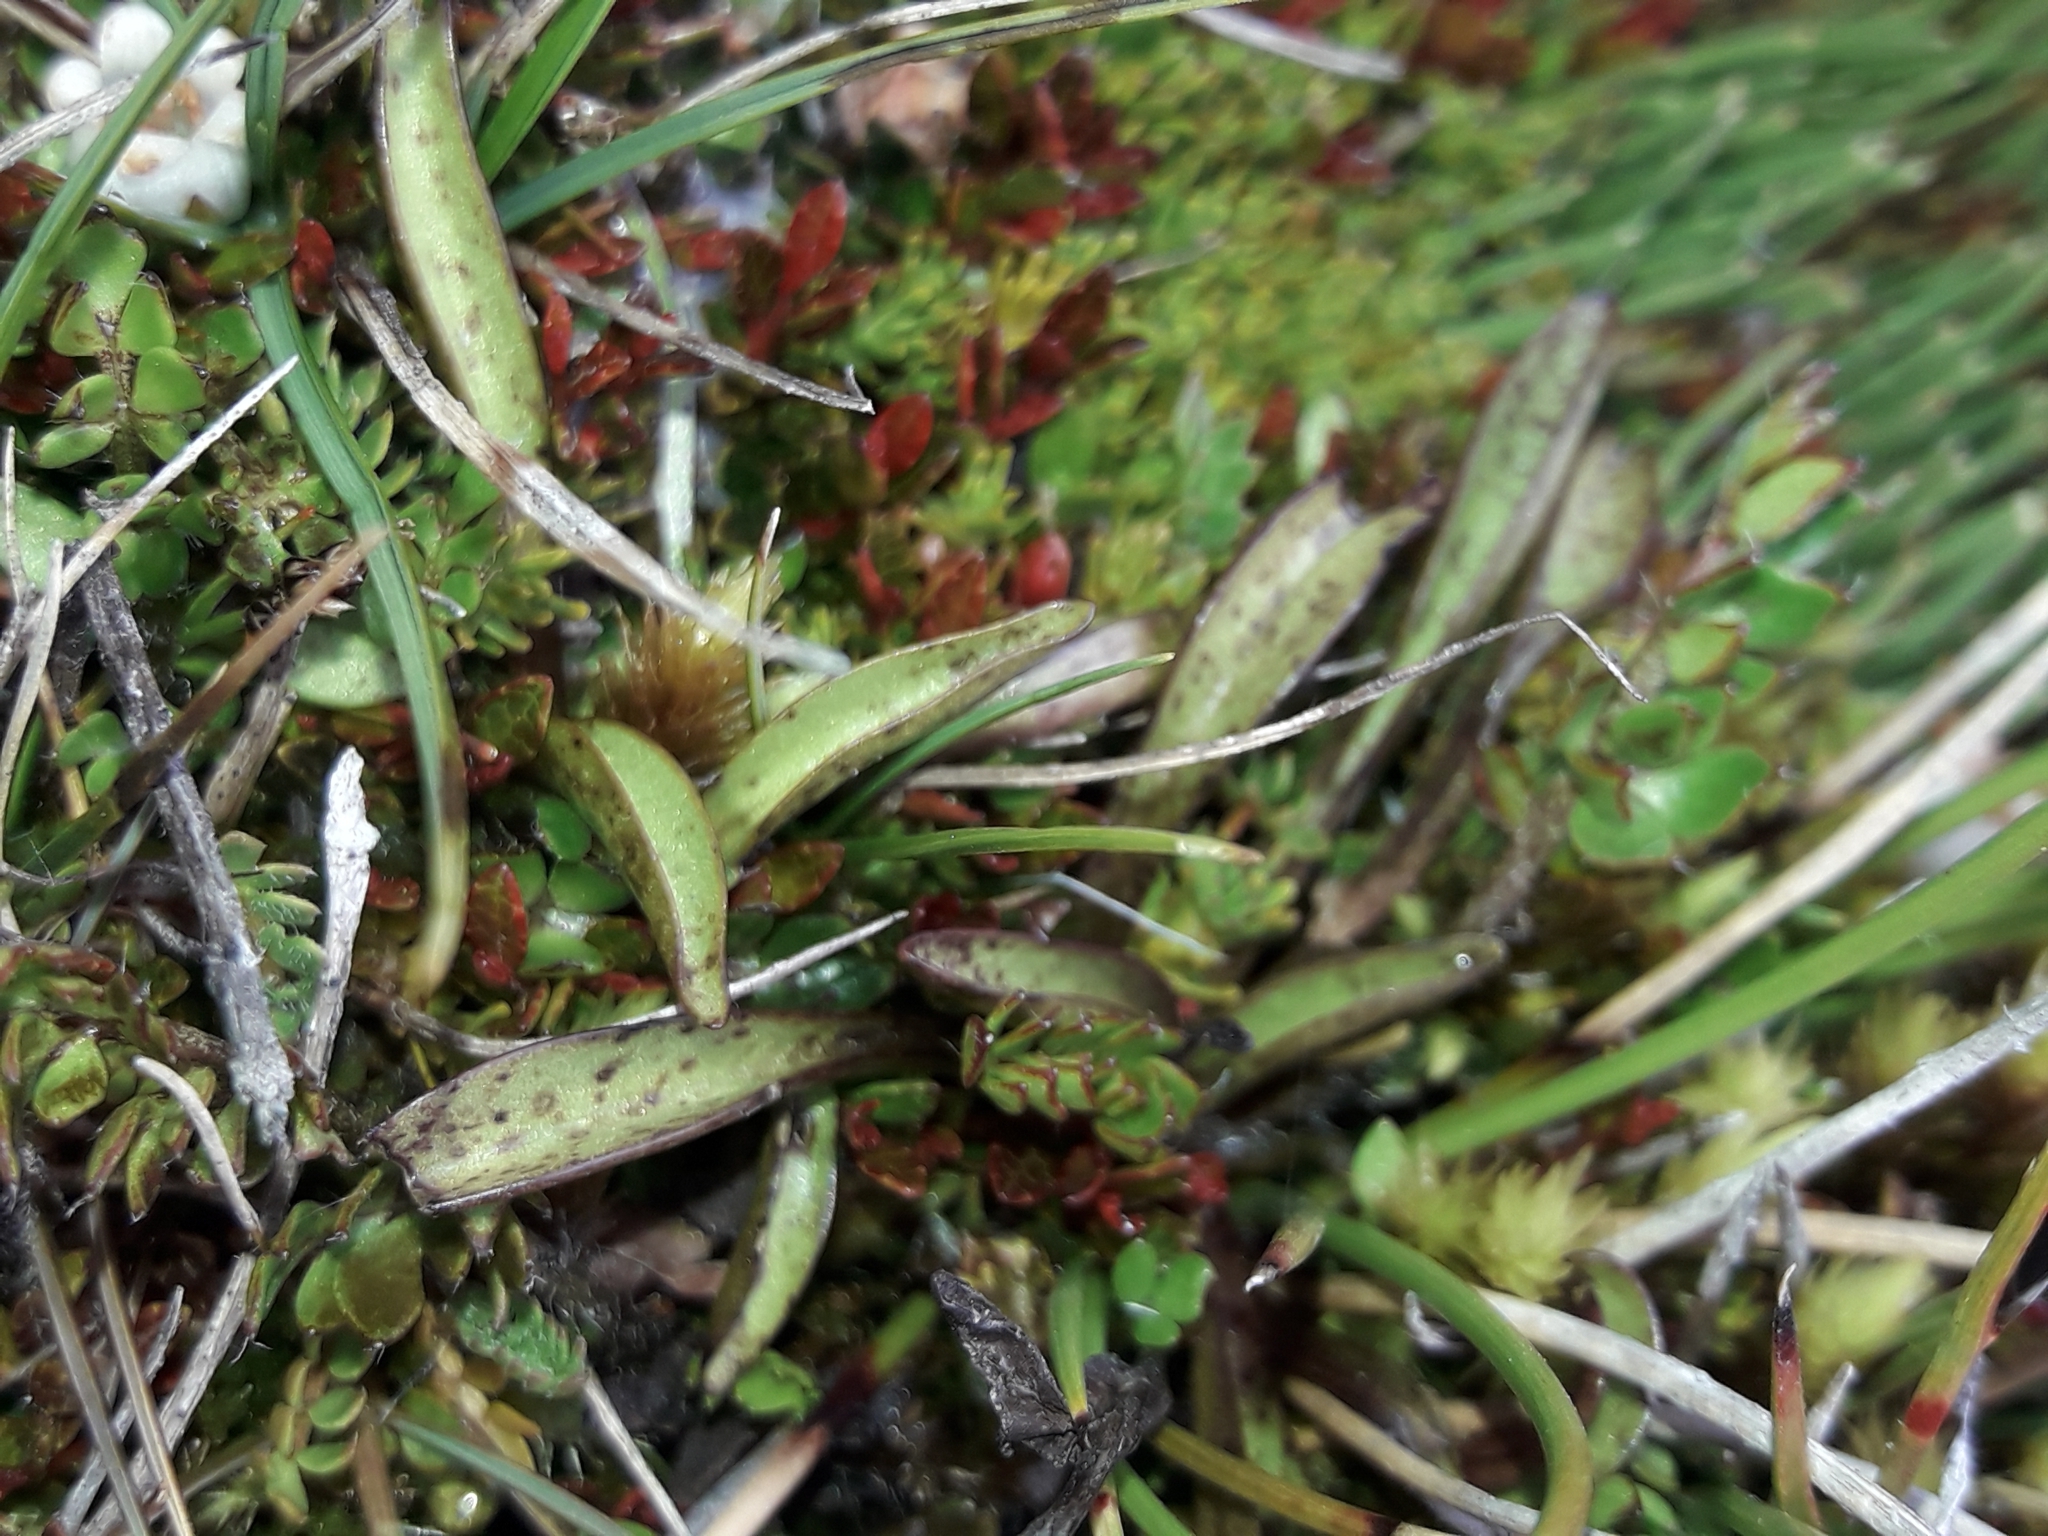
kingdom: Plantae
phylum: Tracheophyta
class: Magnoliopsida
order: Gentianales
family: Gentianaceae
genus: Gentianella
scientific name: Gentianella amabilis
